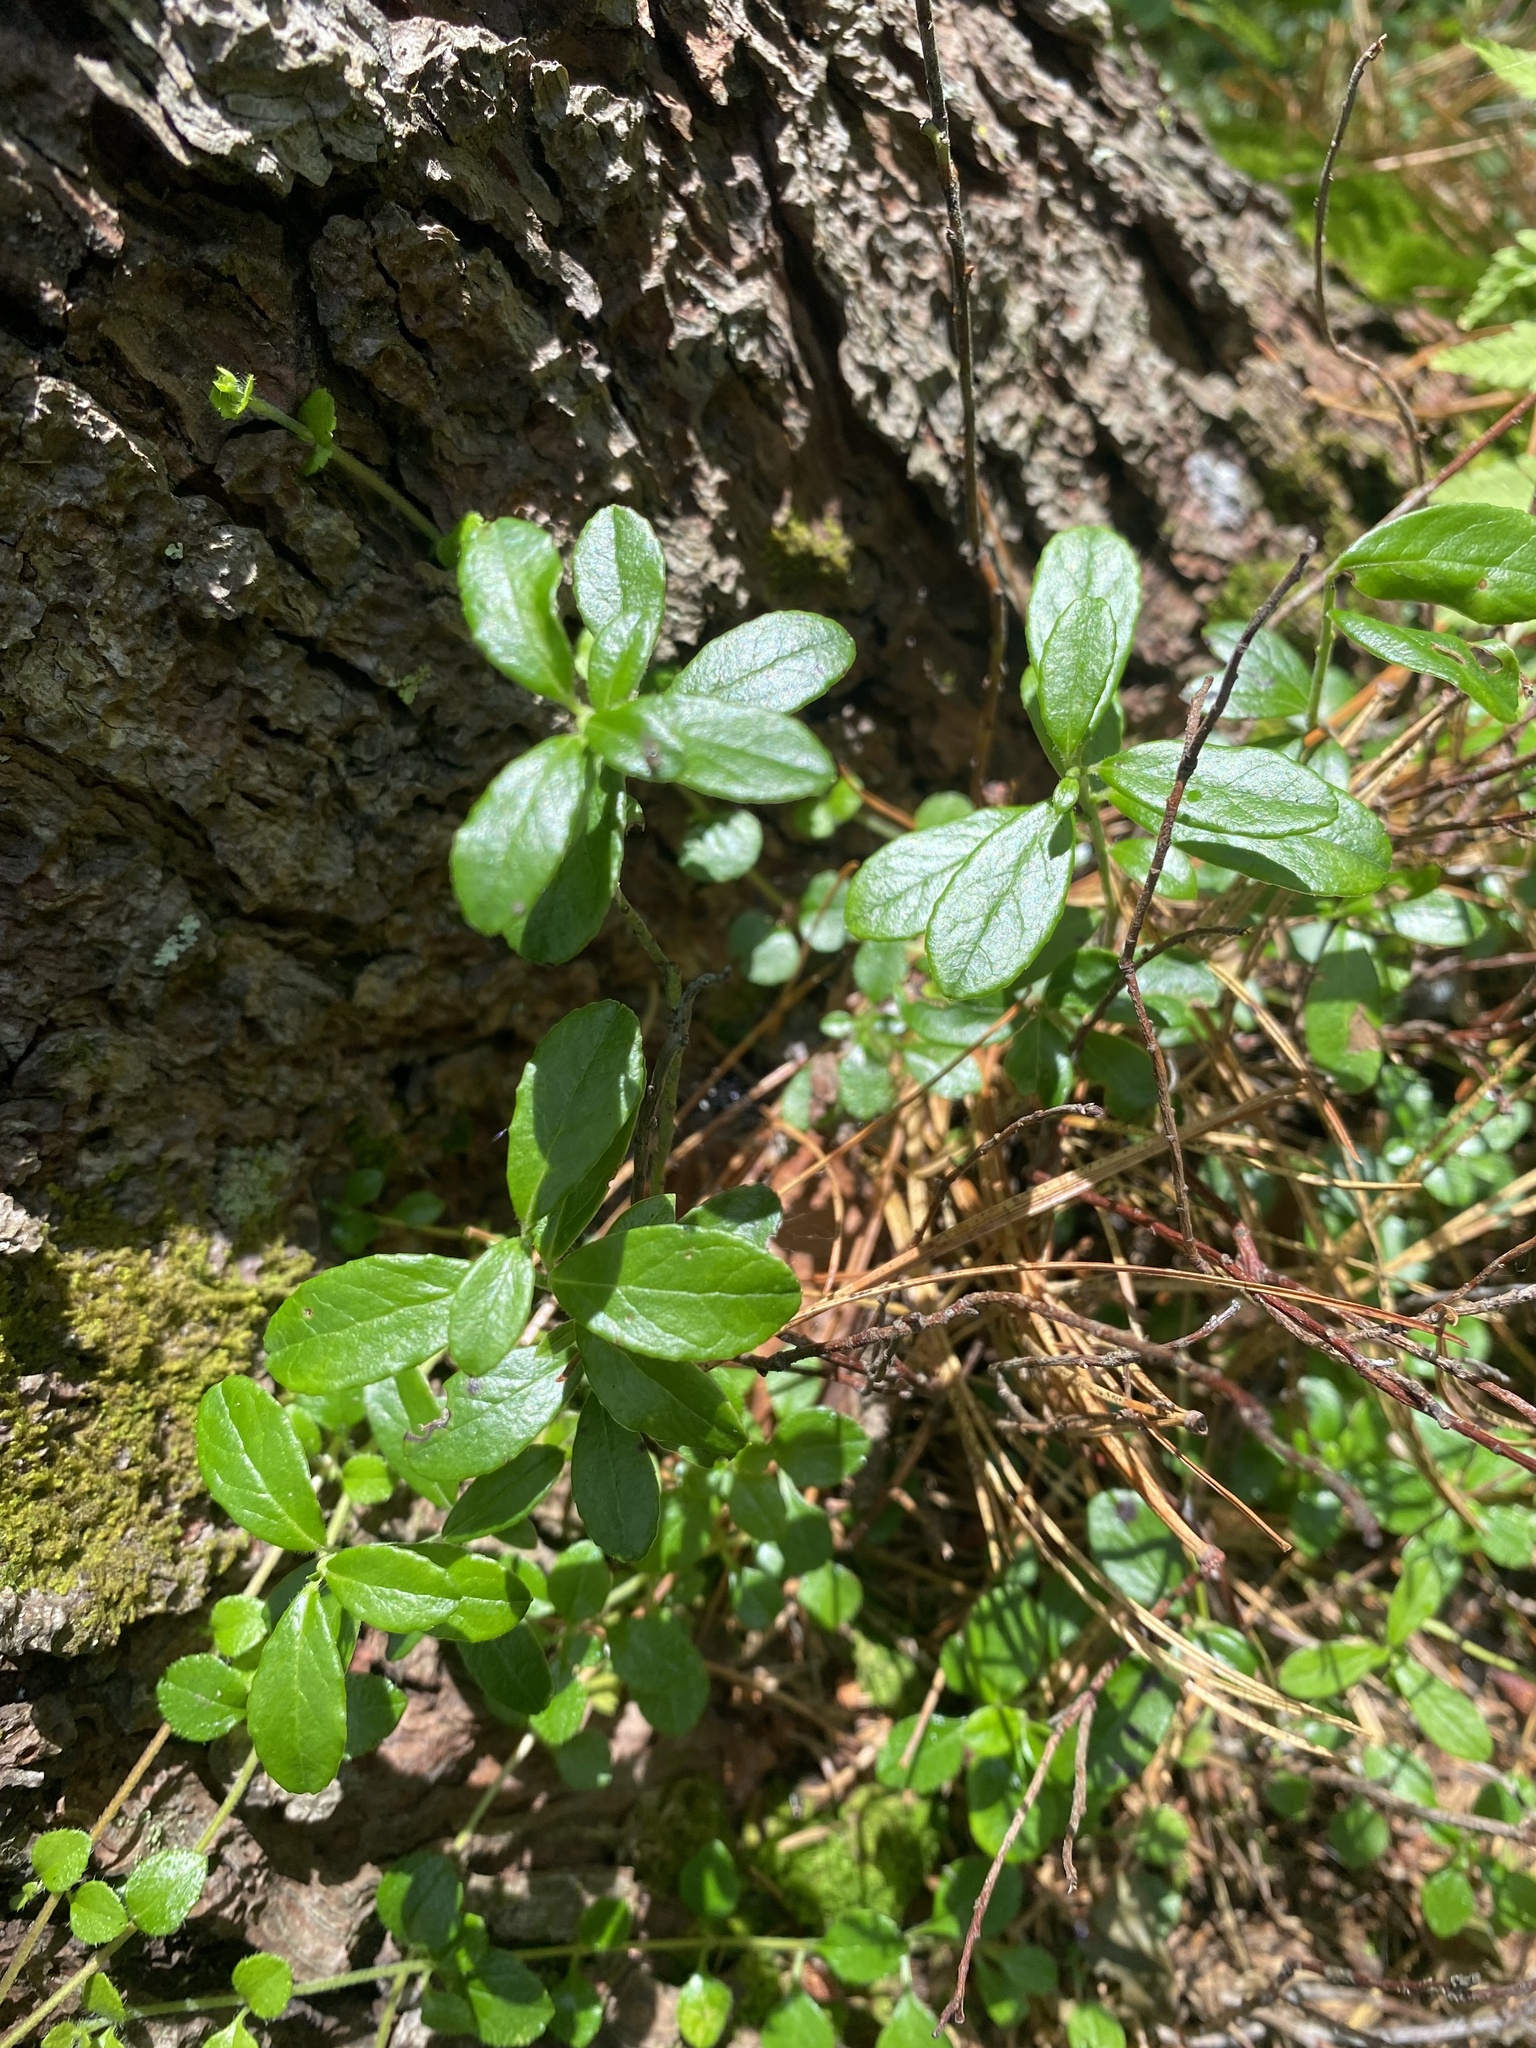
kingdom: Plantae
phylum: Tracheophyta
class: Magnoliopsida
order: Ericales
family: Ericaceae
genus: Vaccinium
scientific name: Vaccinium vitis-idaea
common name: Cowberry
